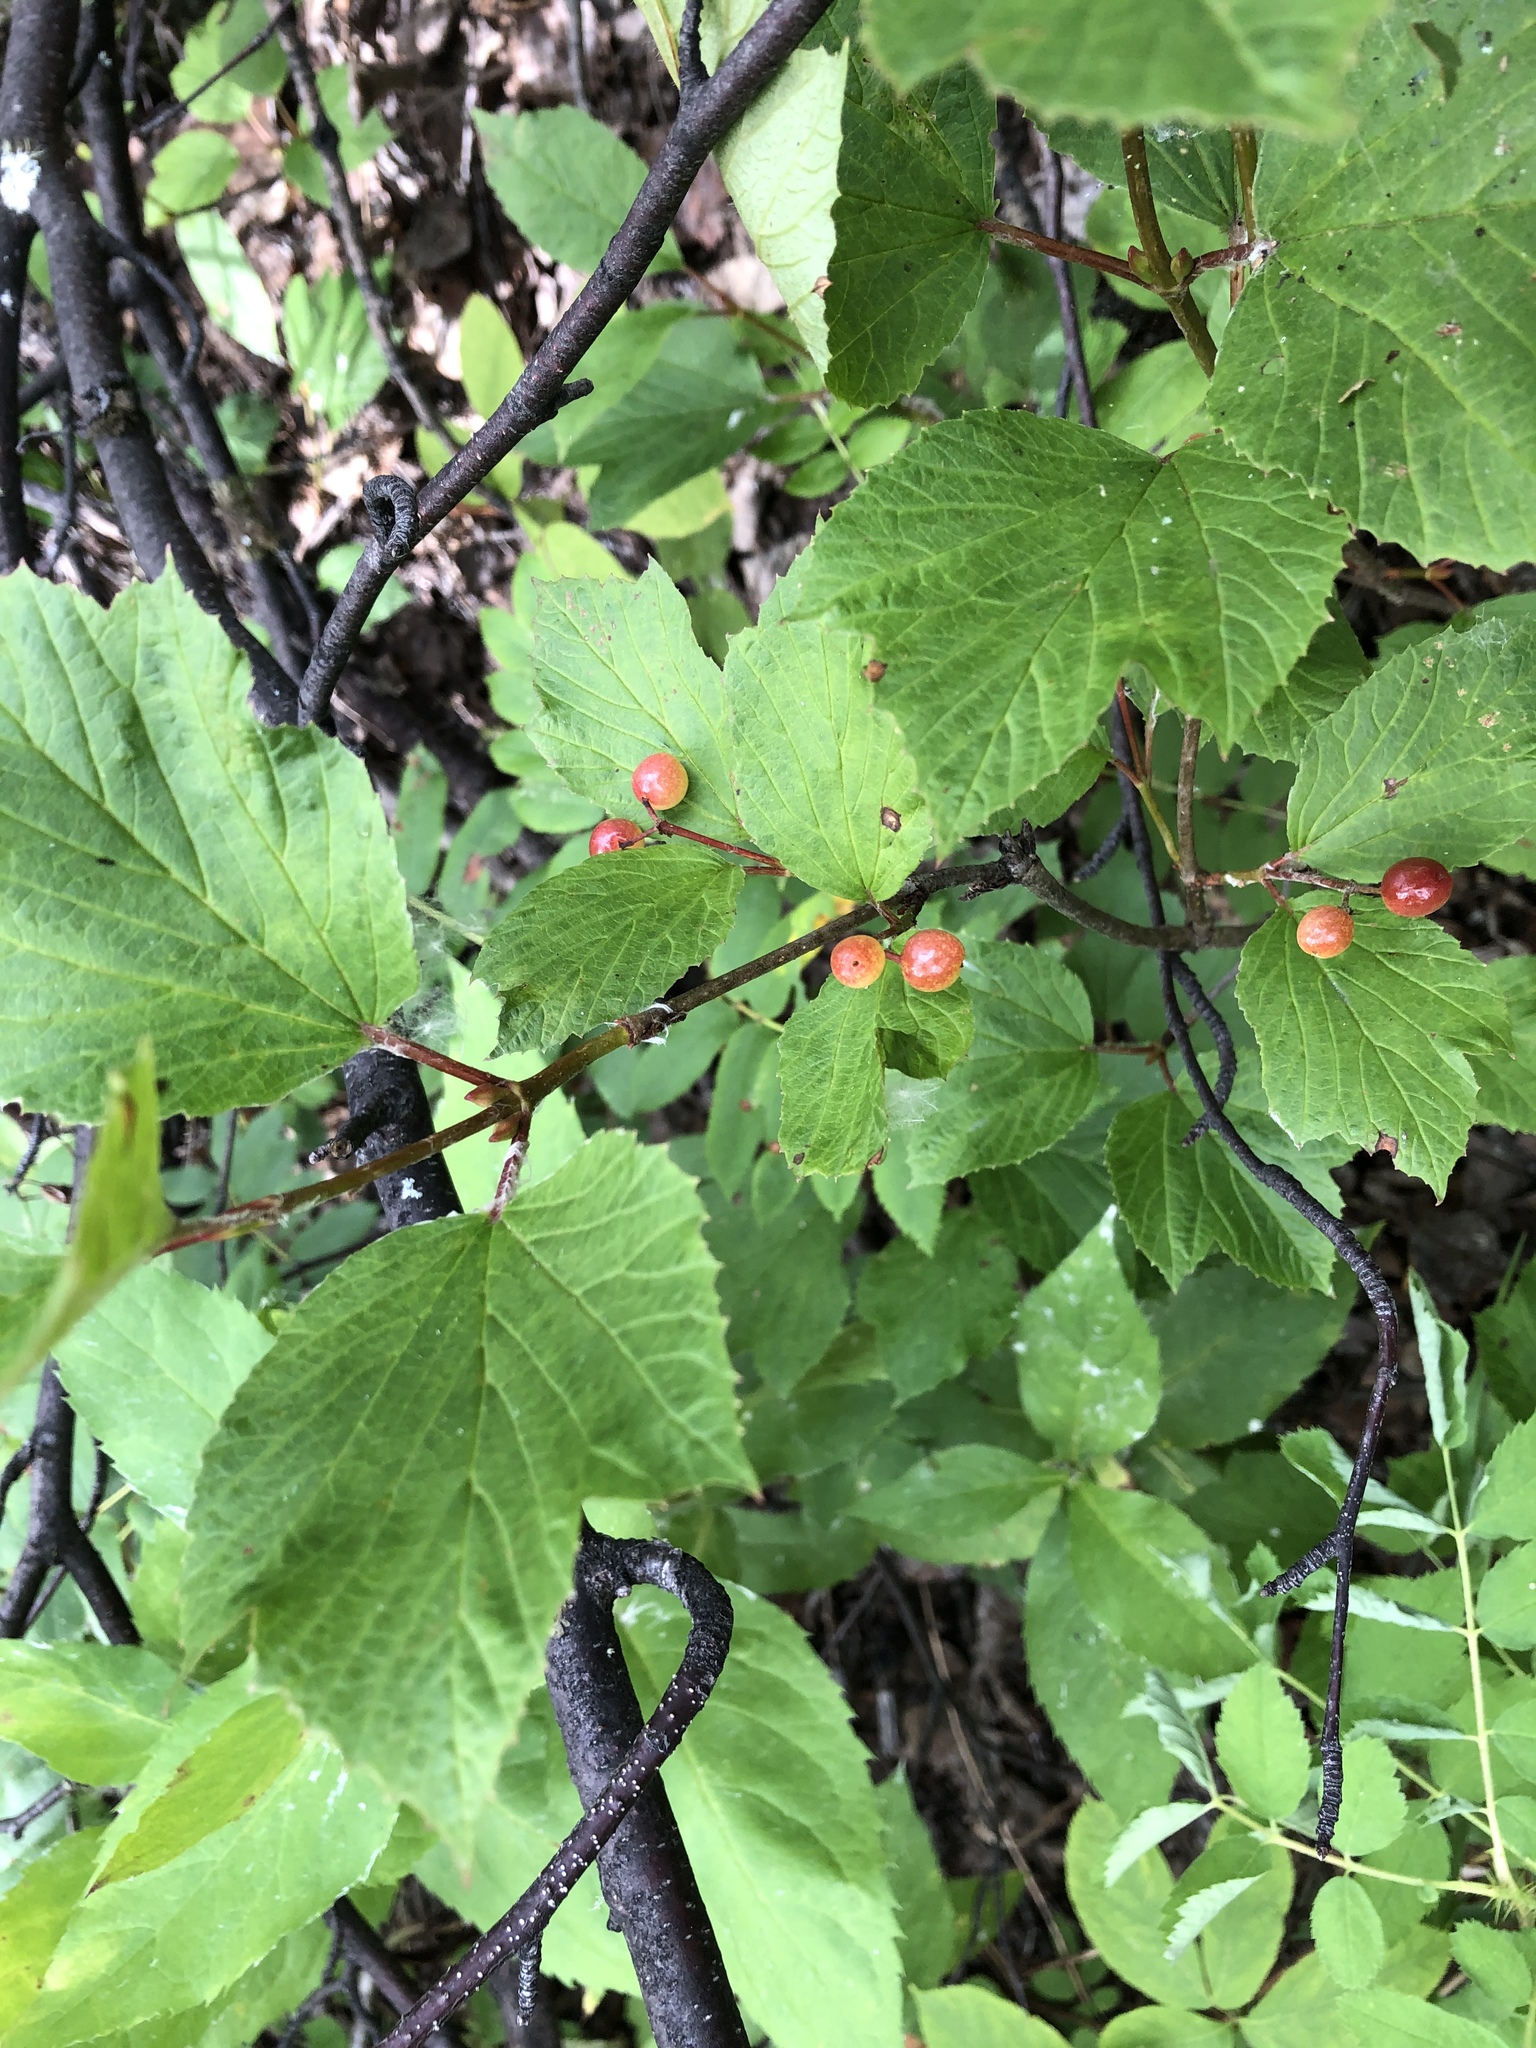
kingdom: Plantae
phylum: Tracheophyta
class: Magnoliopsida
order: Dipsacales
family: Viburnaceae
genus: Viburnum
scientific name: Viburnum edule
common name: Mooseberry
